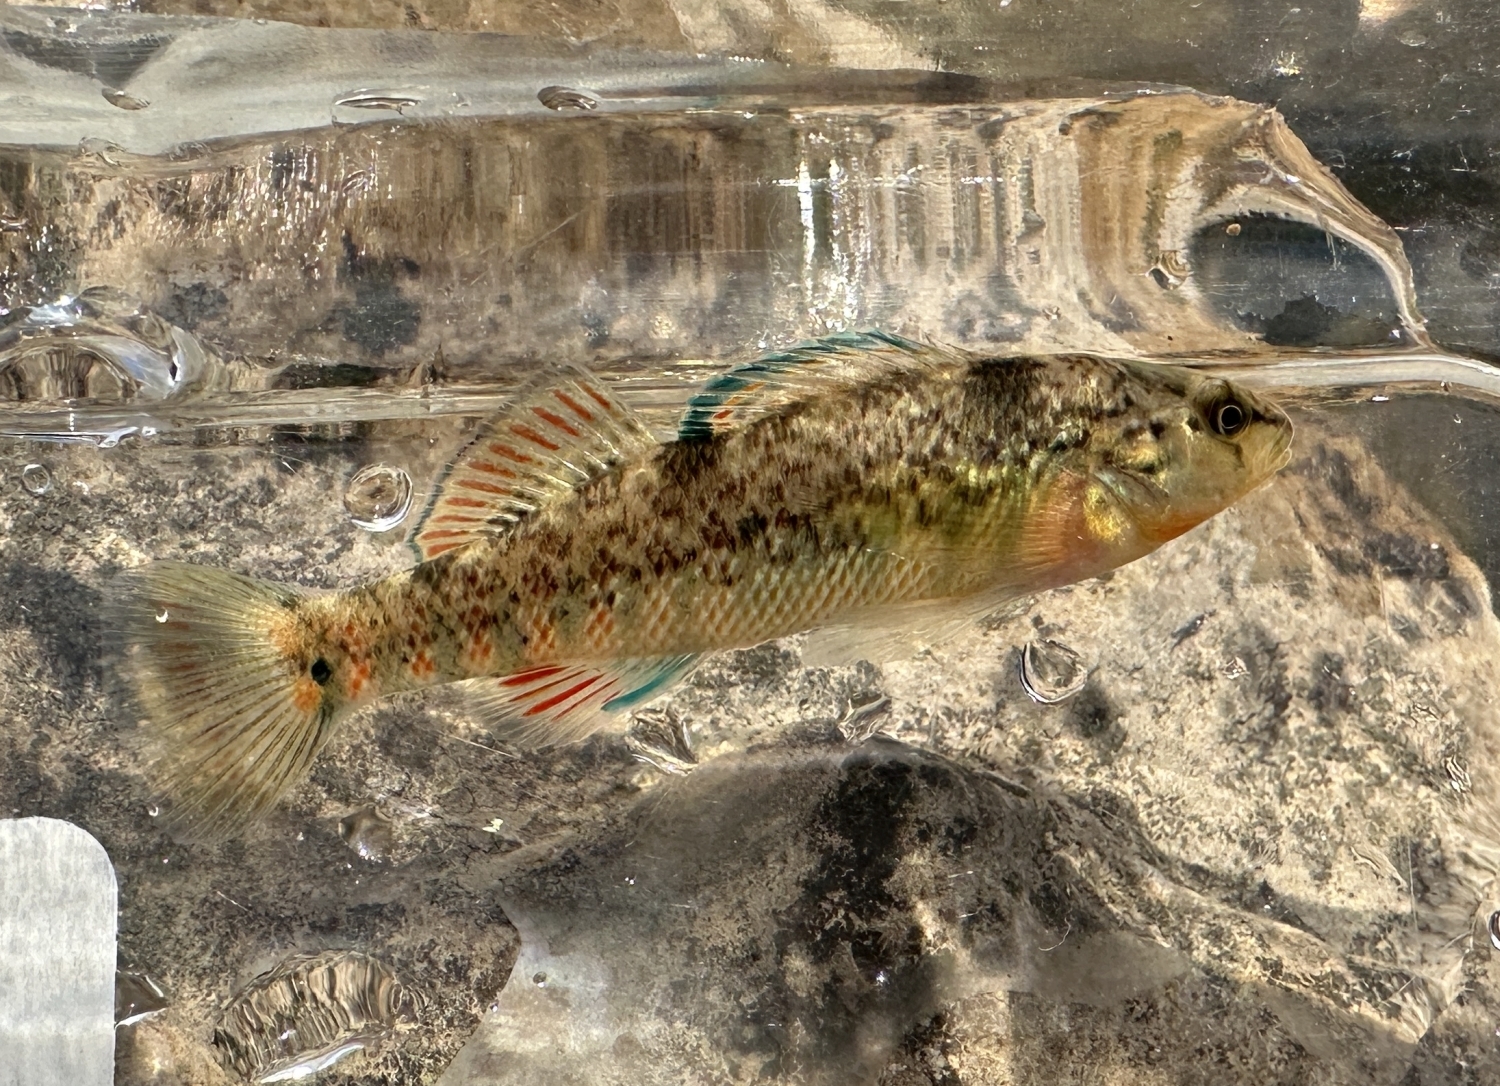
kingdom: Animalia
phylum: Chordata
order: Perciformes
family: Percidae
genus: Etheostoma
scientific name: Etheostoma caeruleum
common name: Rainbow darter
